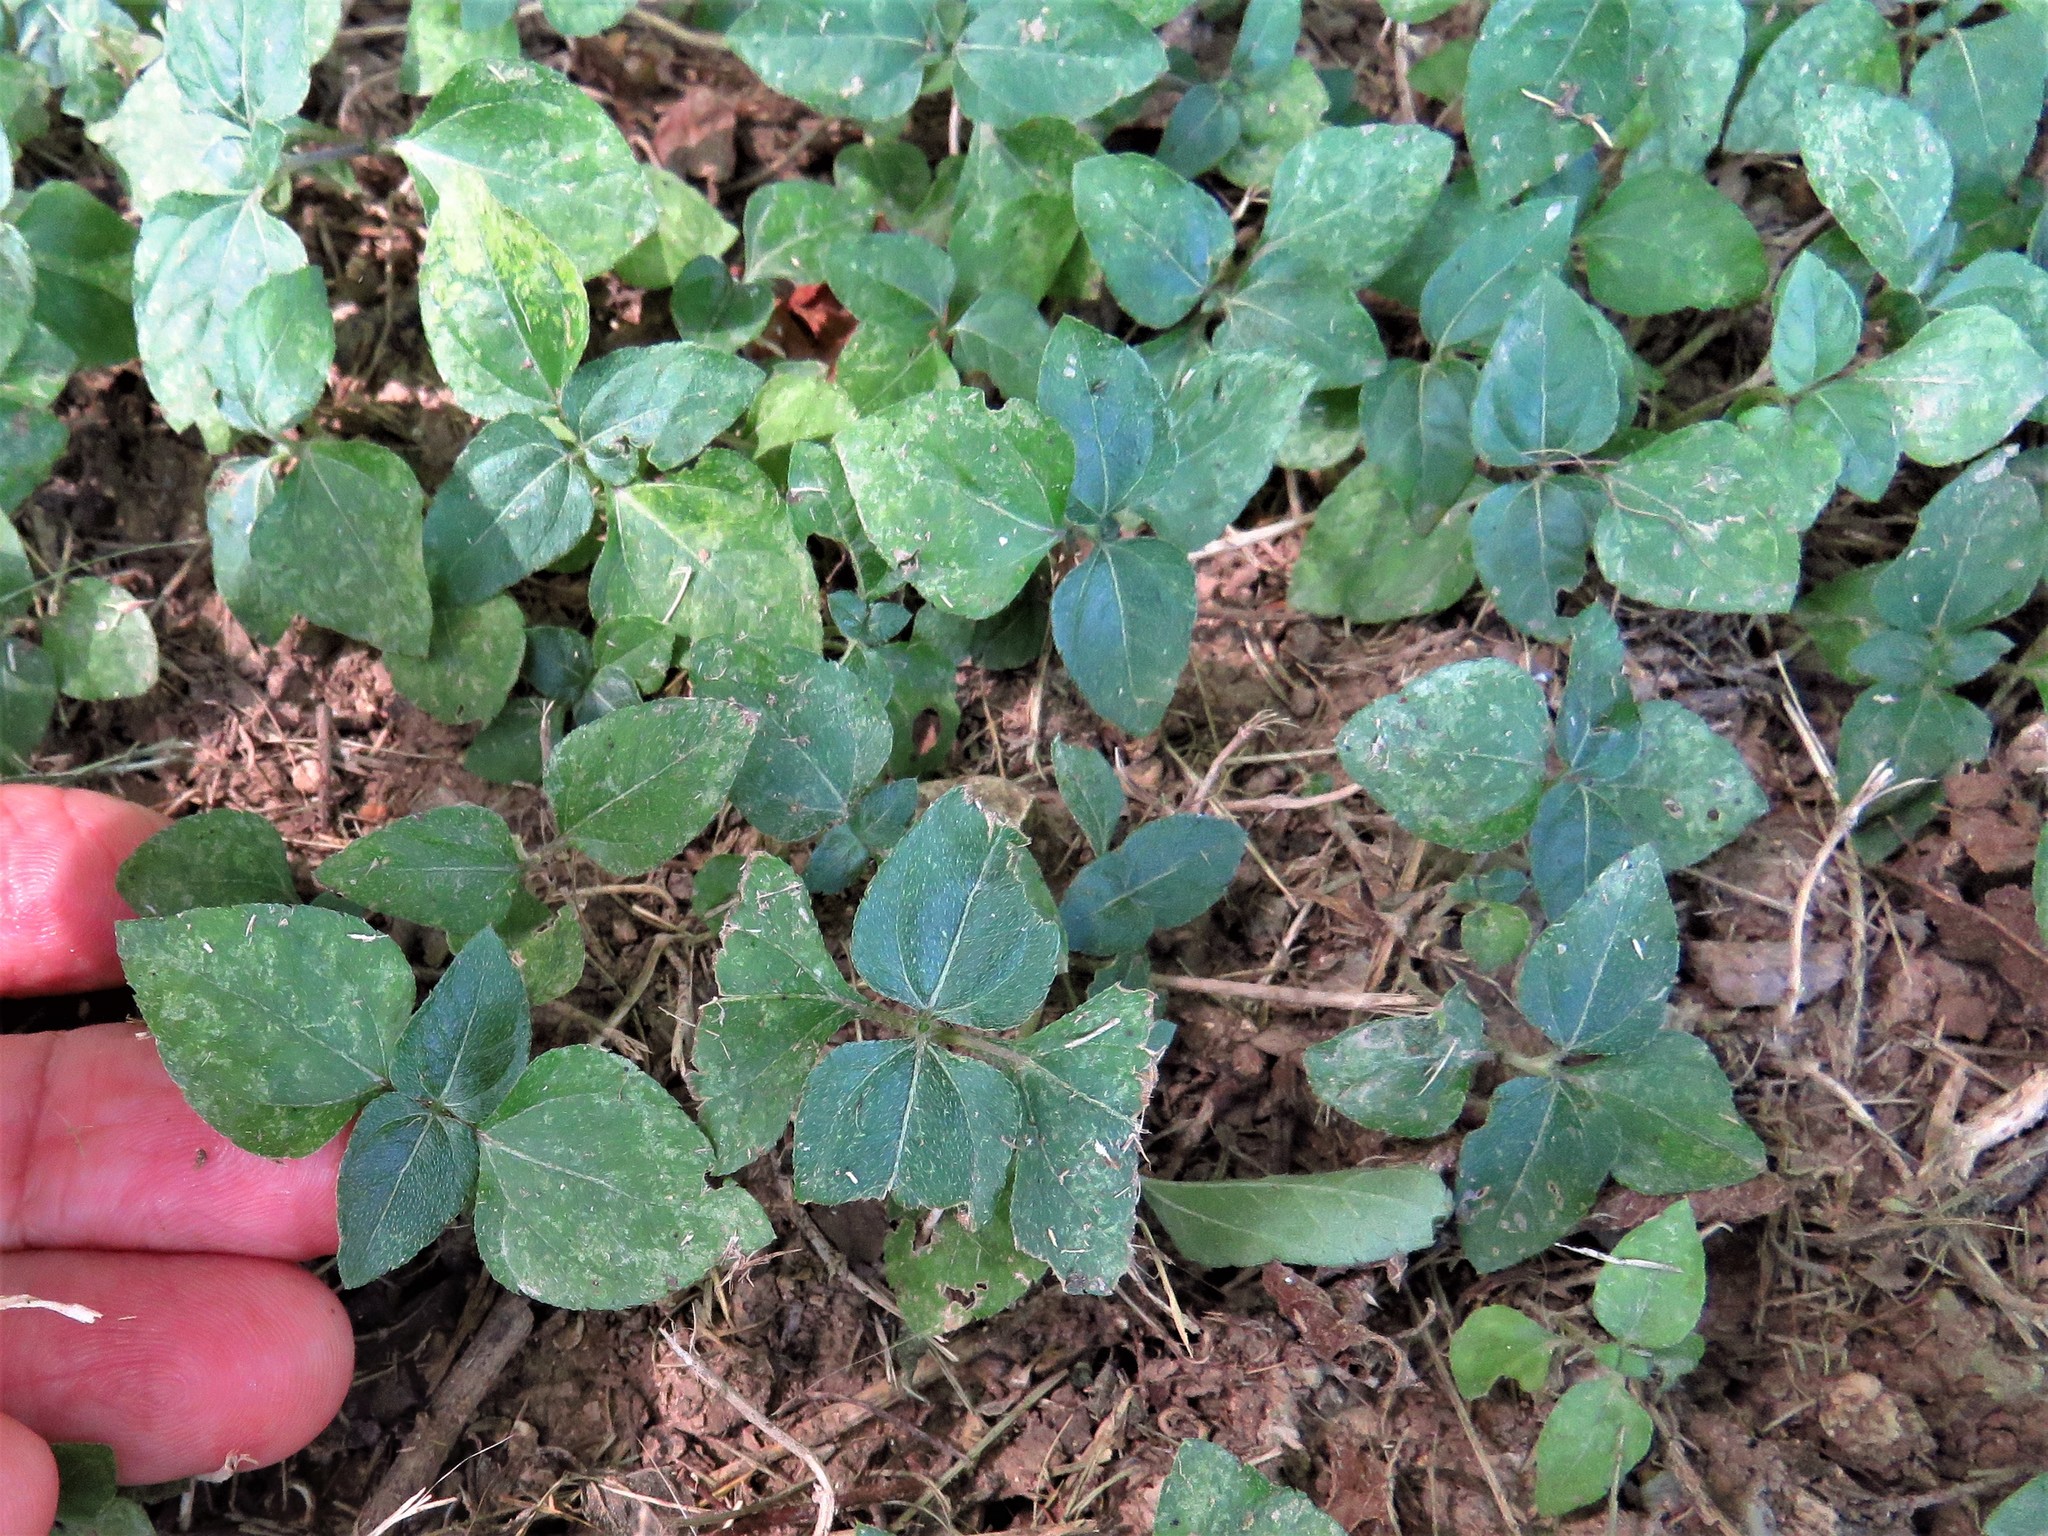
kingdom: Plantae
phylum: Tracheophyta
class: Magnoliopsida
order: Asterales
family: Asteraceae
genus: Calyptocarpus
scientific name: Calyptocarpus vialis
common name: Straggler daisy
